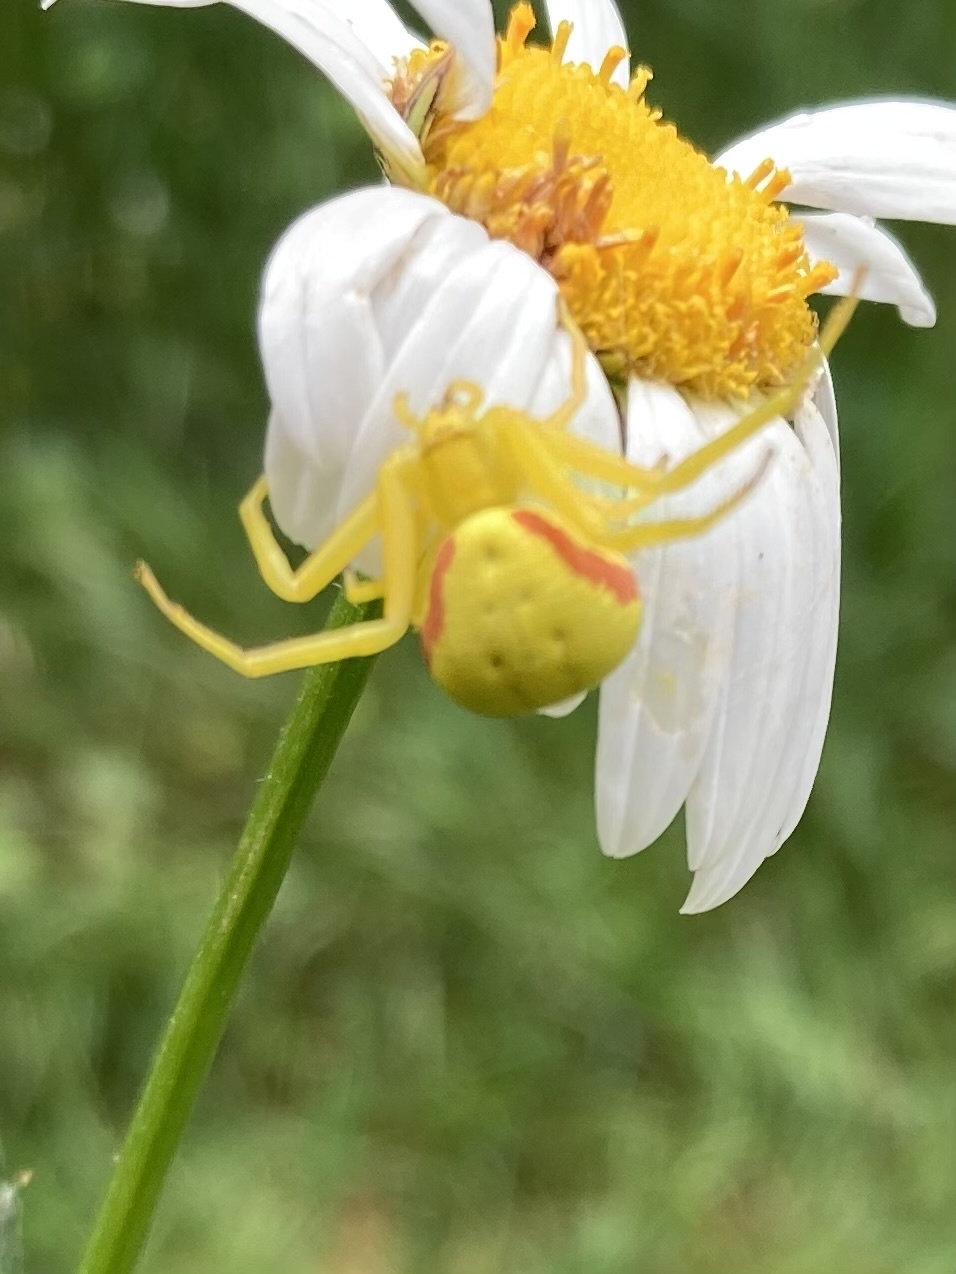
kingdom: Animalia
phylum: Arthropoda
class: Arachnida
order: Araneae
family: Thomisidae
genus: Misumena
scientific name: Misumena vatia
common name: Goldenrod crab spider
